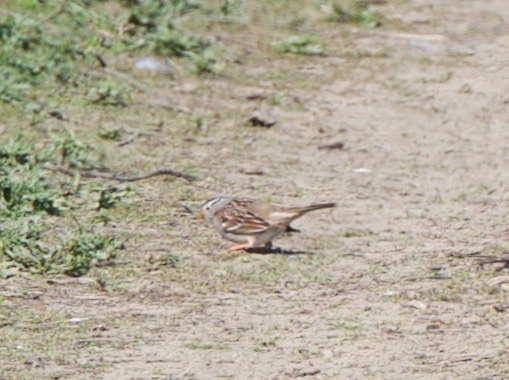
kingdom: Animalia
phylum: Chordata
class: Aves
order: Passeriformes
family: Passerellidae
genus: Zonotrichia
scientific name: Zonotrichia leucophrys
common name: White-crowned sparrow
